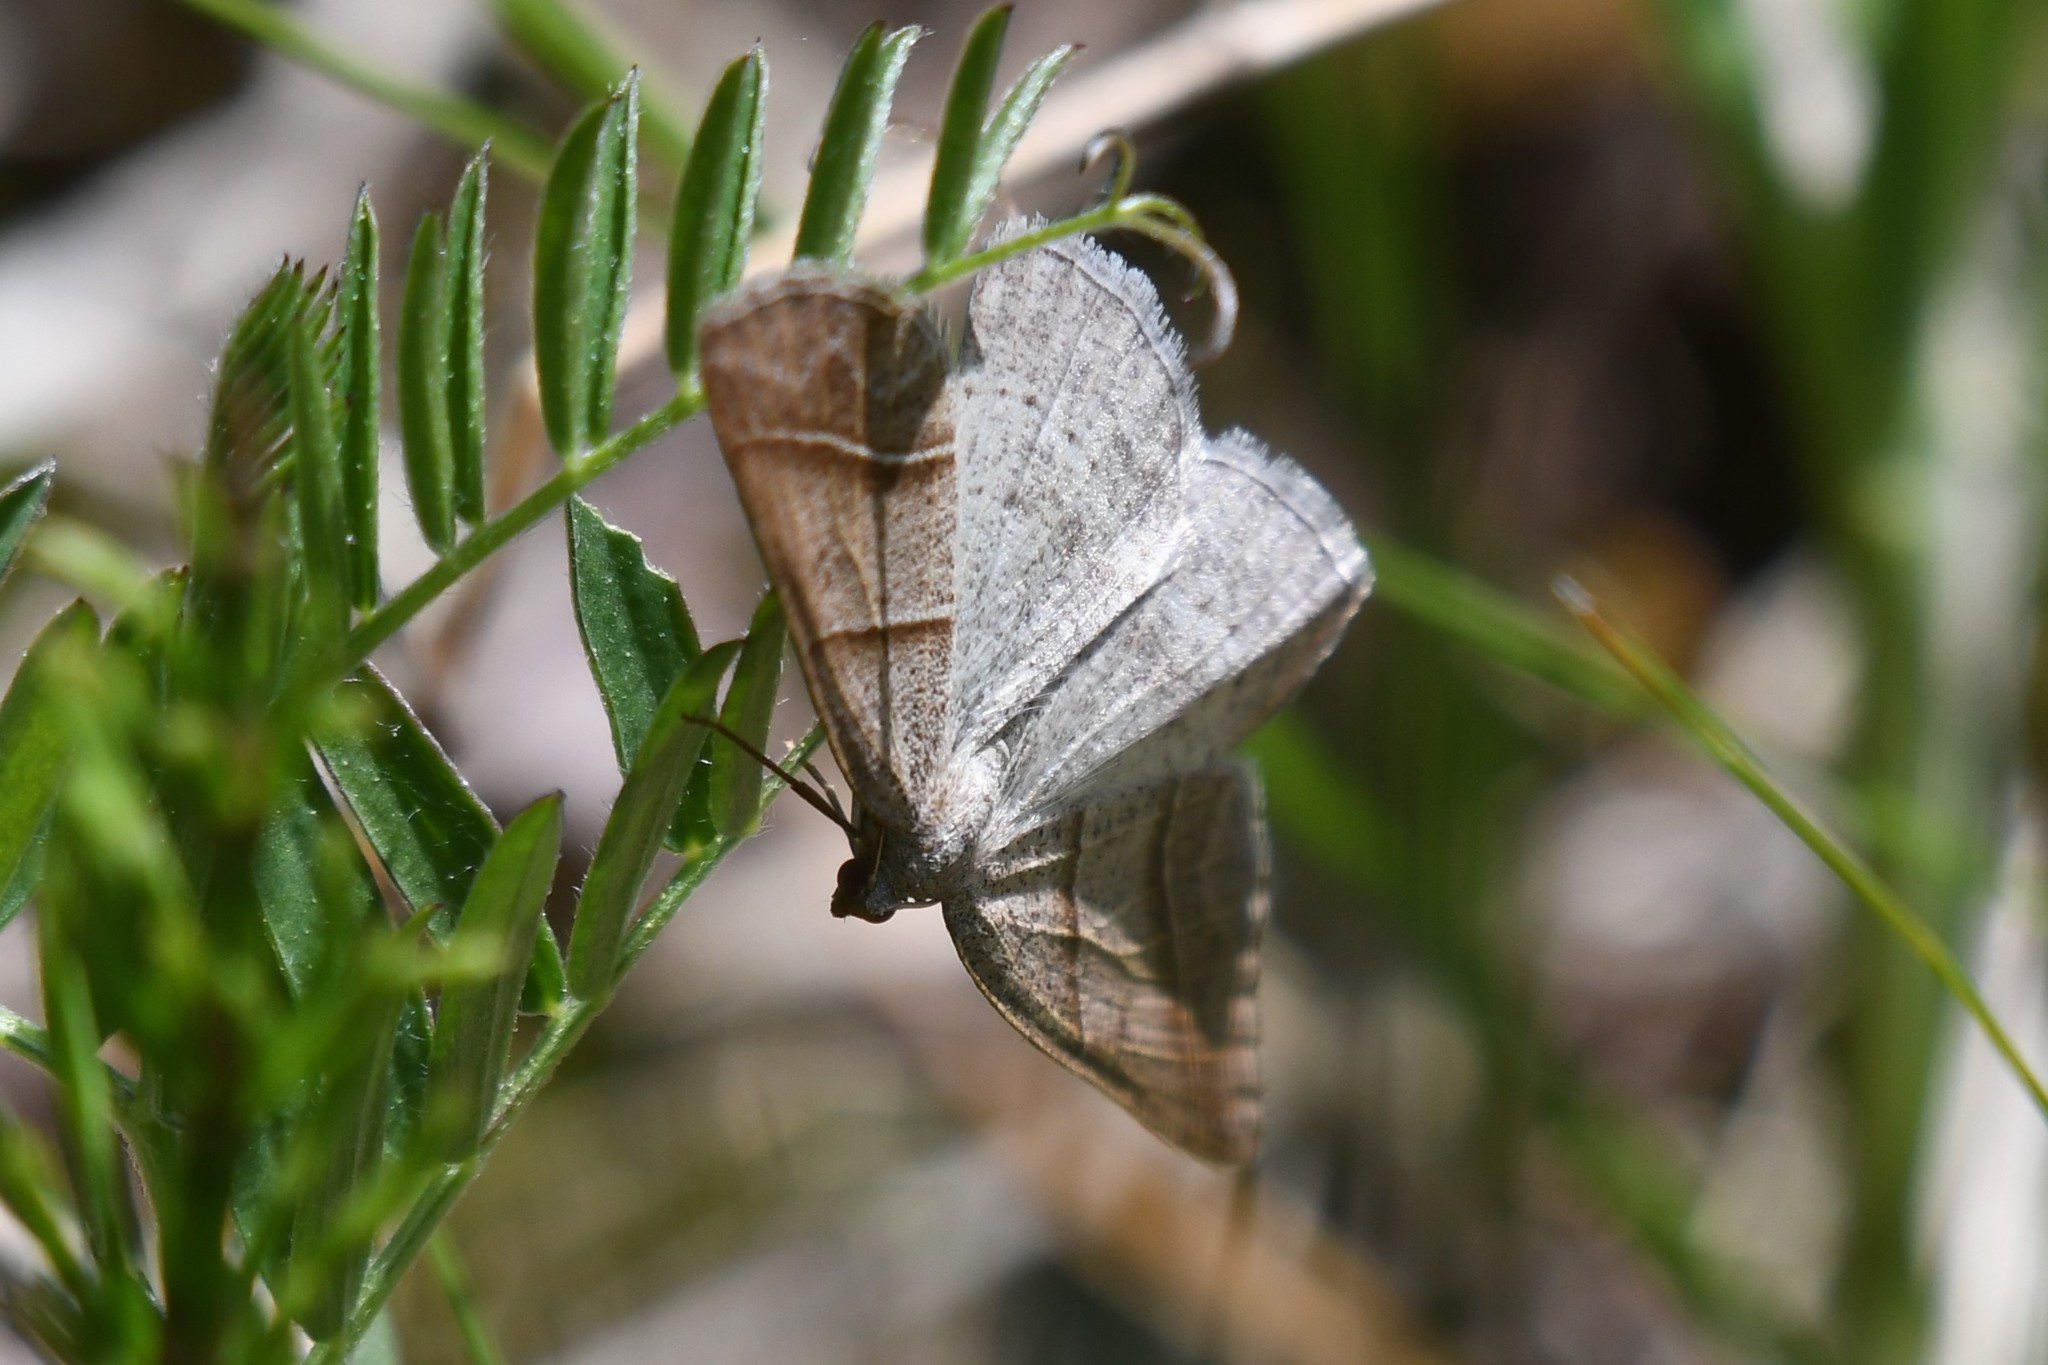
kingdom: Animalia
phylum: Arthropoda
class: Insecta
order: Lepidoptera
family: Pterophoridae
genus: Pterophorus
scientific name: Pterophorus Petrophora subaequaria
